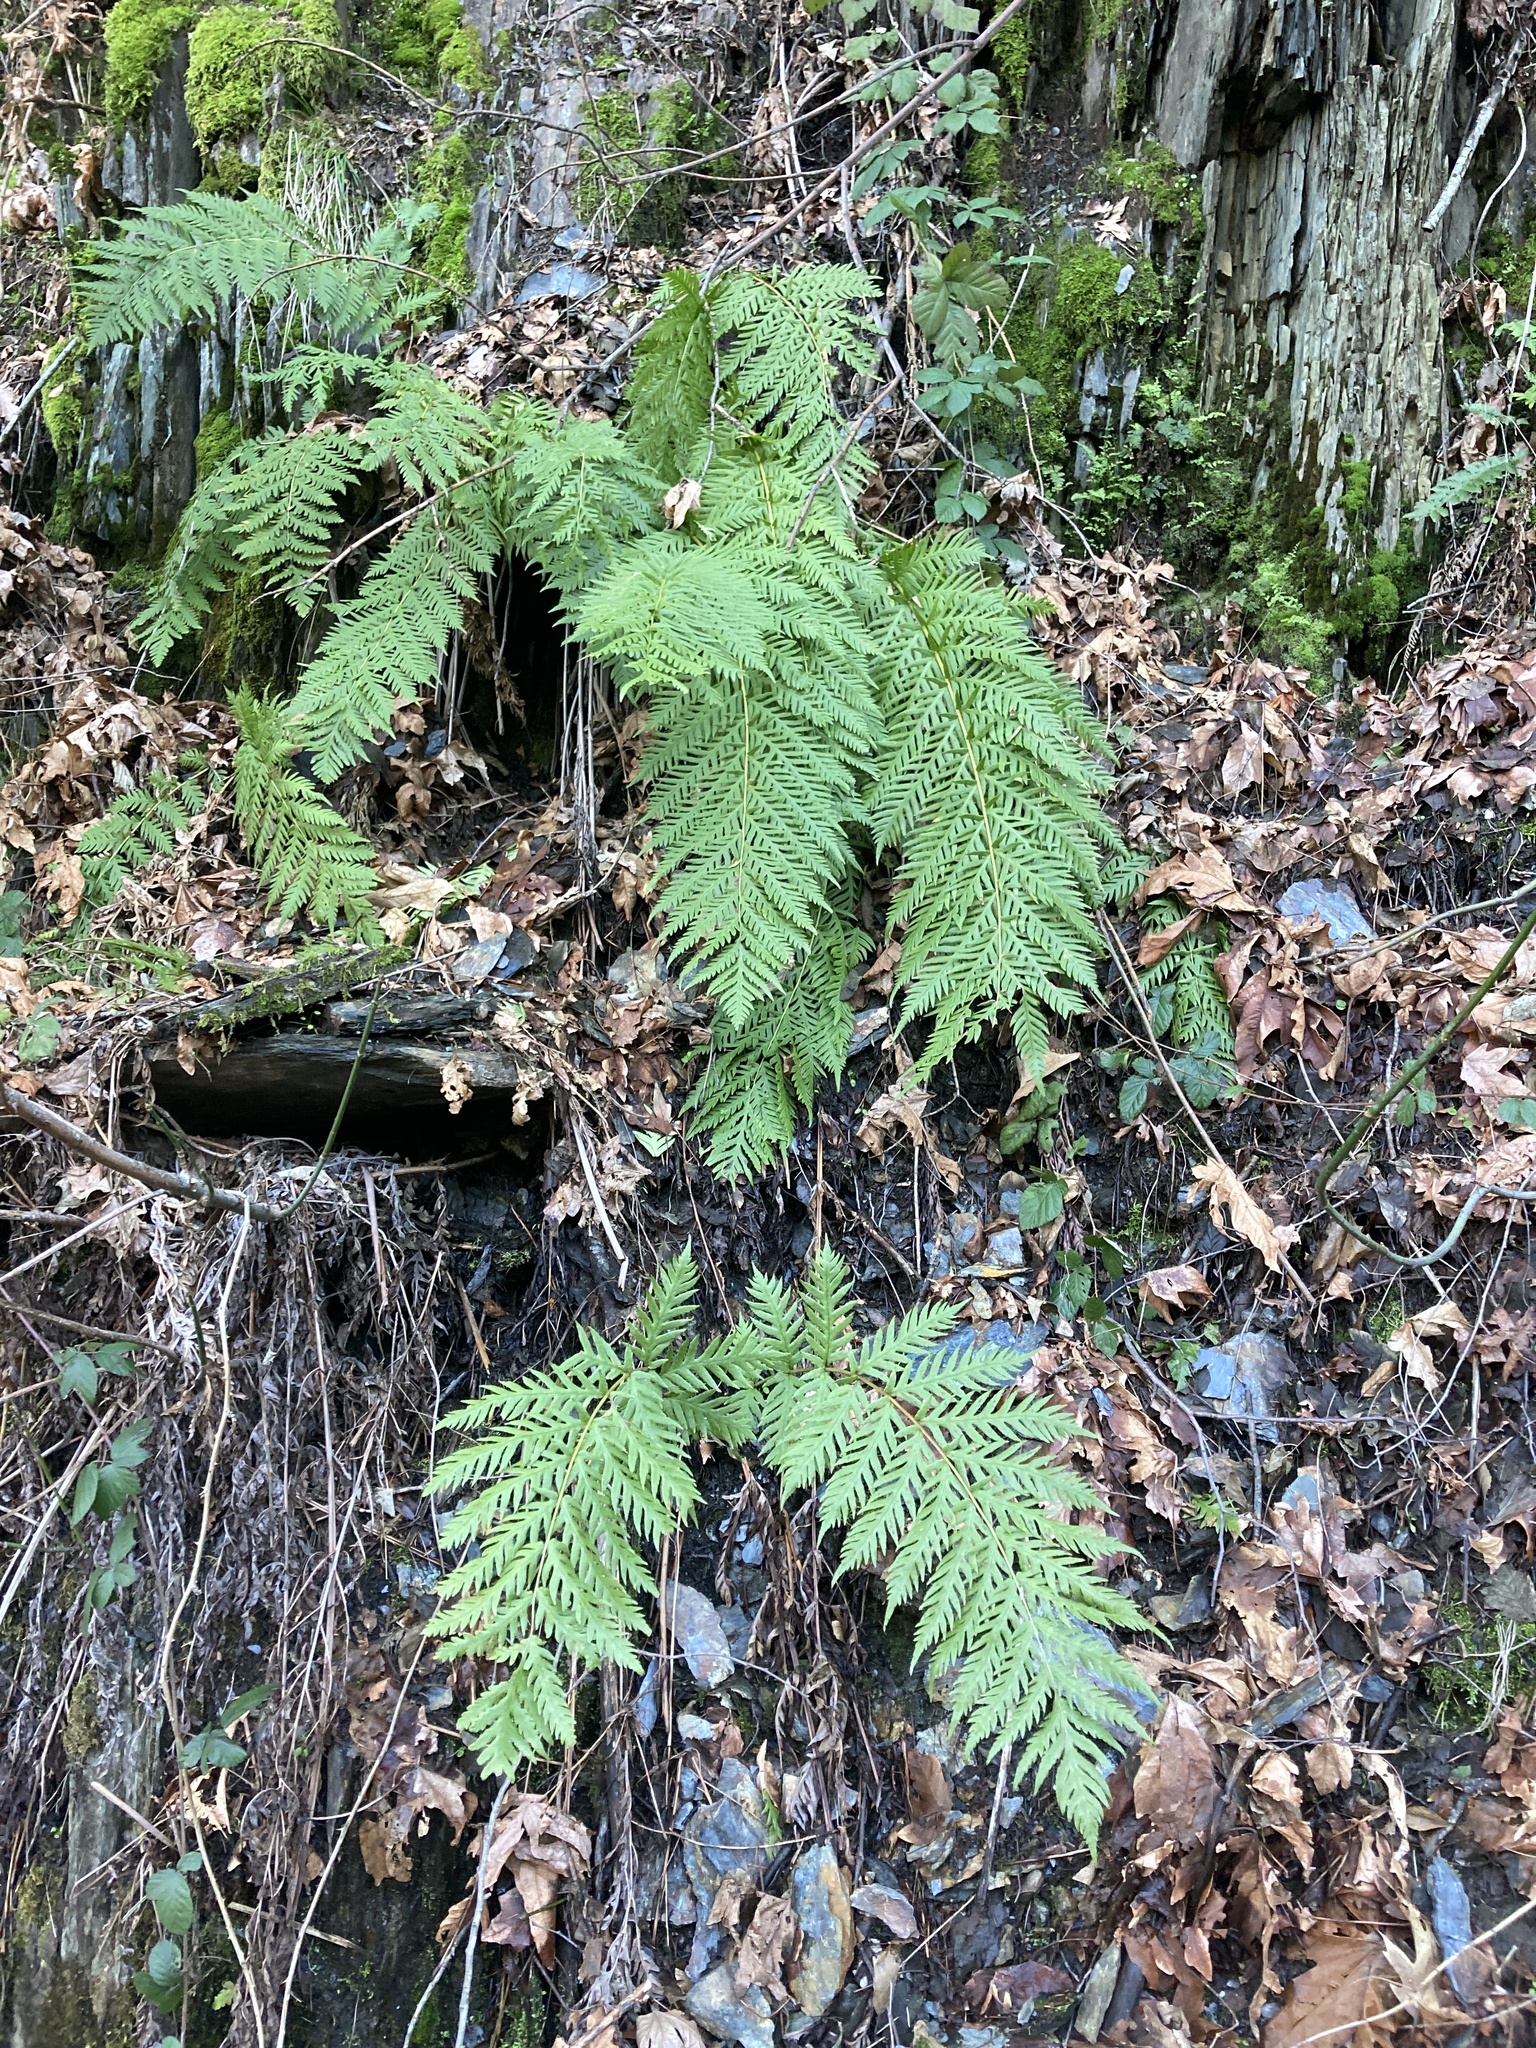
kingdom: Plantae
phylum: Tracheophyta
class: Polypodiopsida
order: Polypodiales
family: Blechnaceae
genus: Woodwardia
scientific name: Woodwardia fimbriata
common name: Giant chain fern
